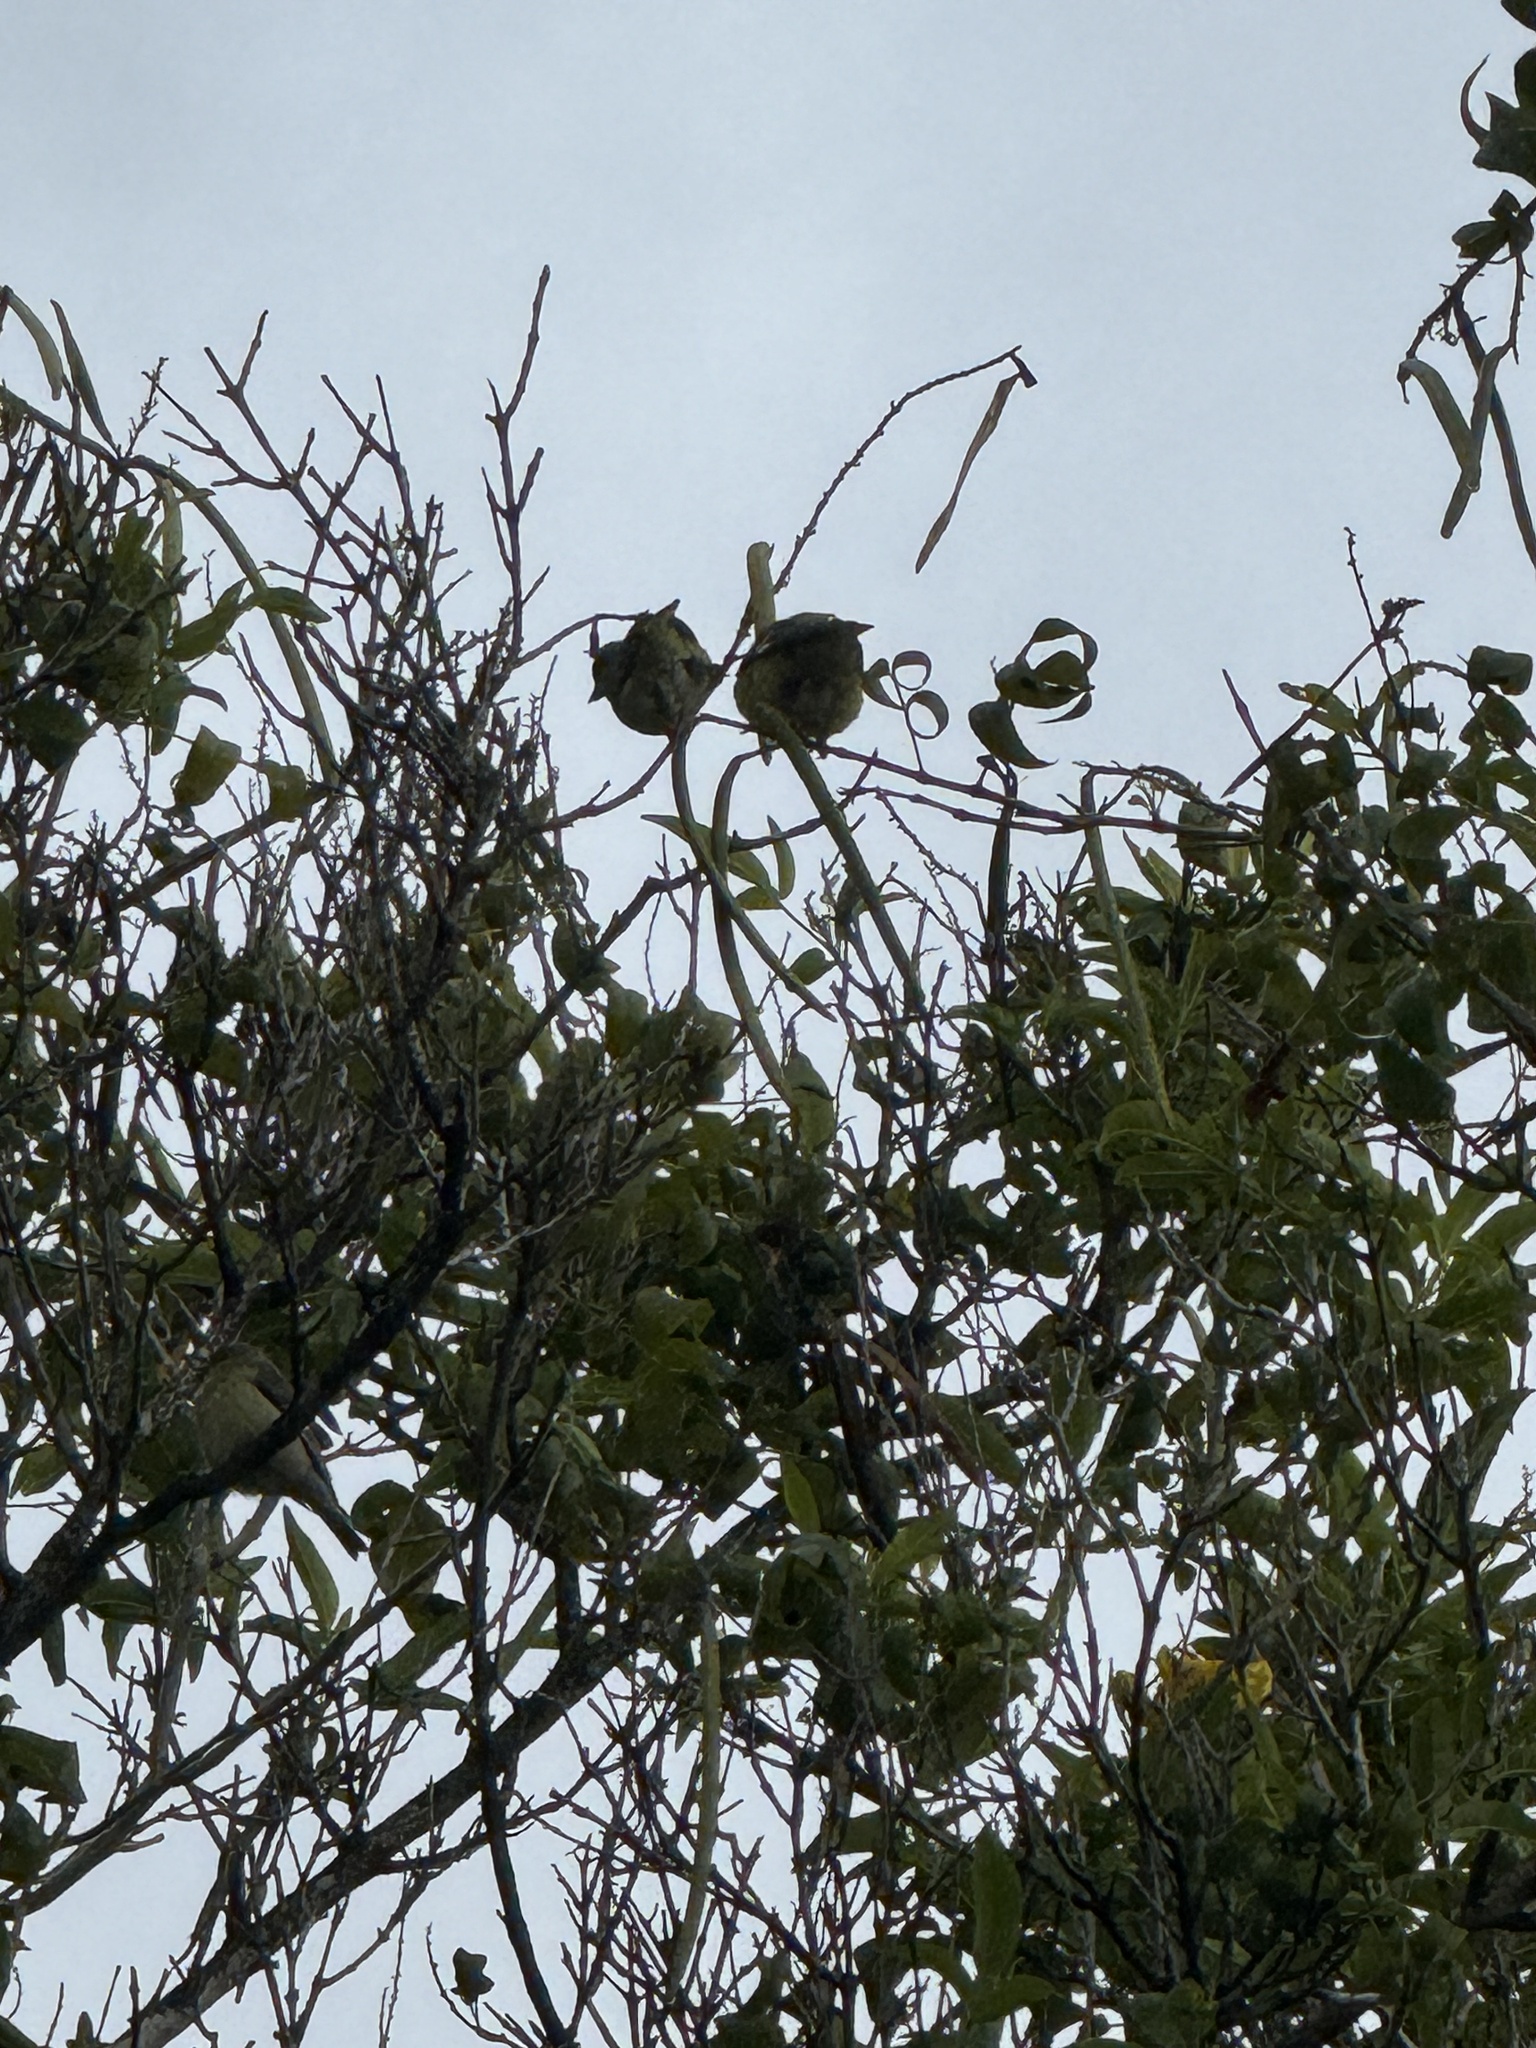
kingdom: Animalia
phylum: Chordata
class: Aves
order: Passeriformes
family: Fringillidae
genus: Spinus
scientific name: Spinus psaltria
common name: Lesser goldfinch
